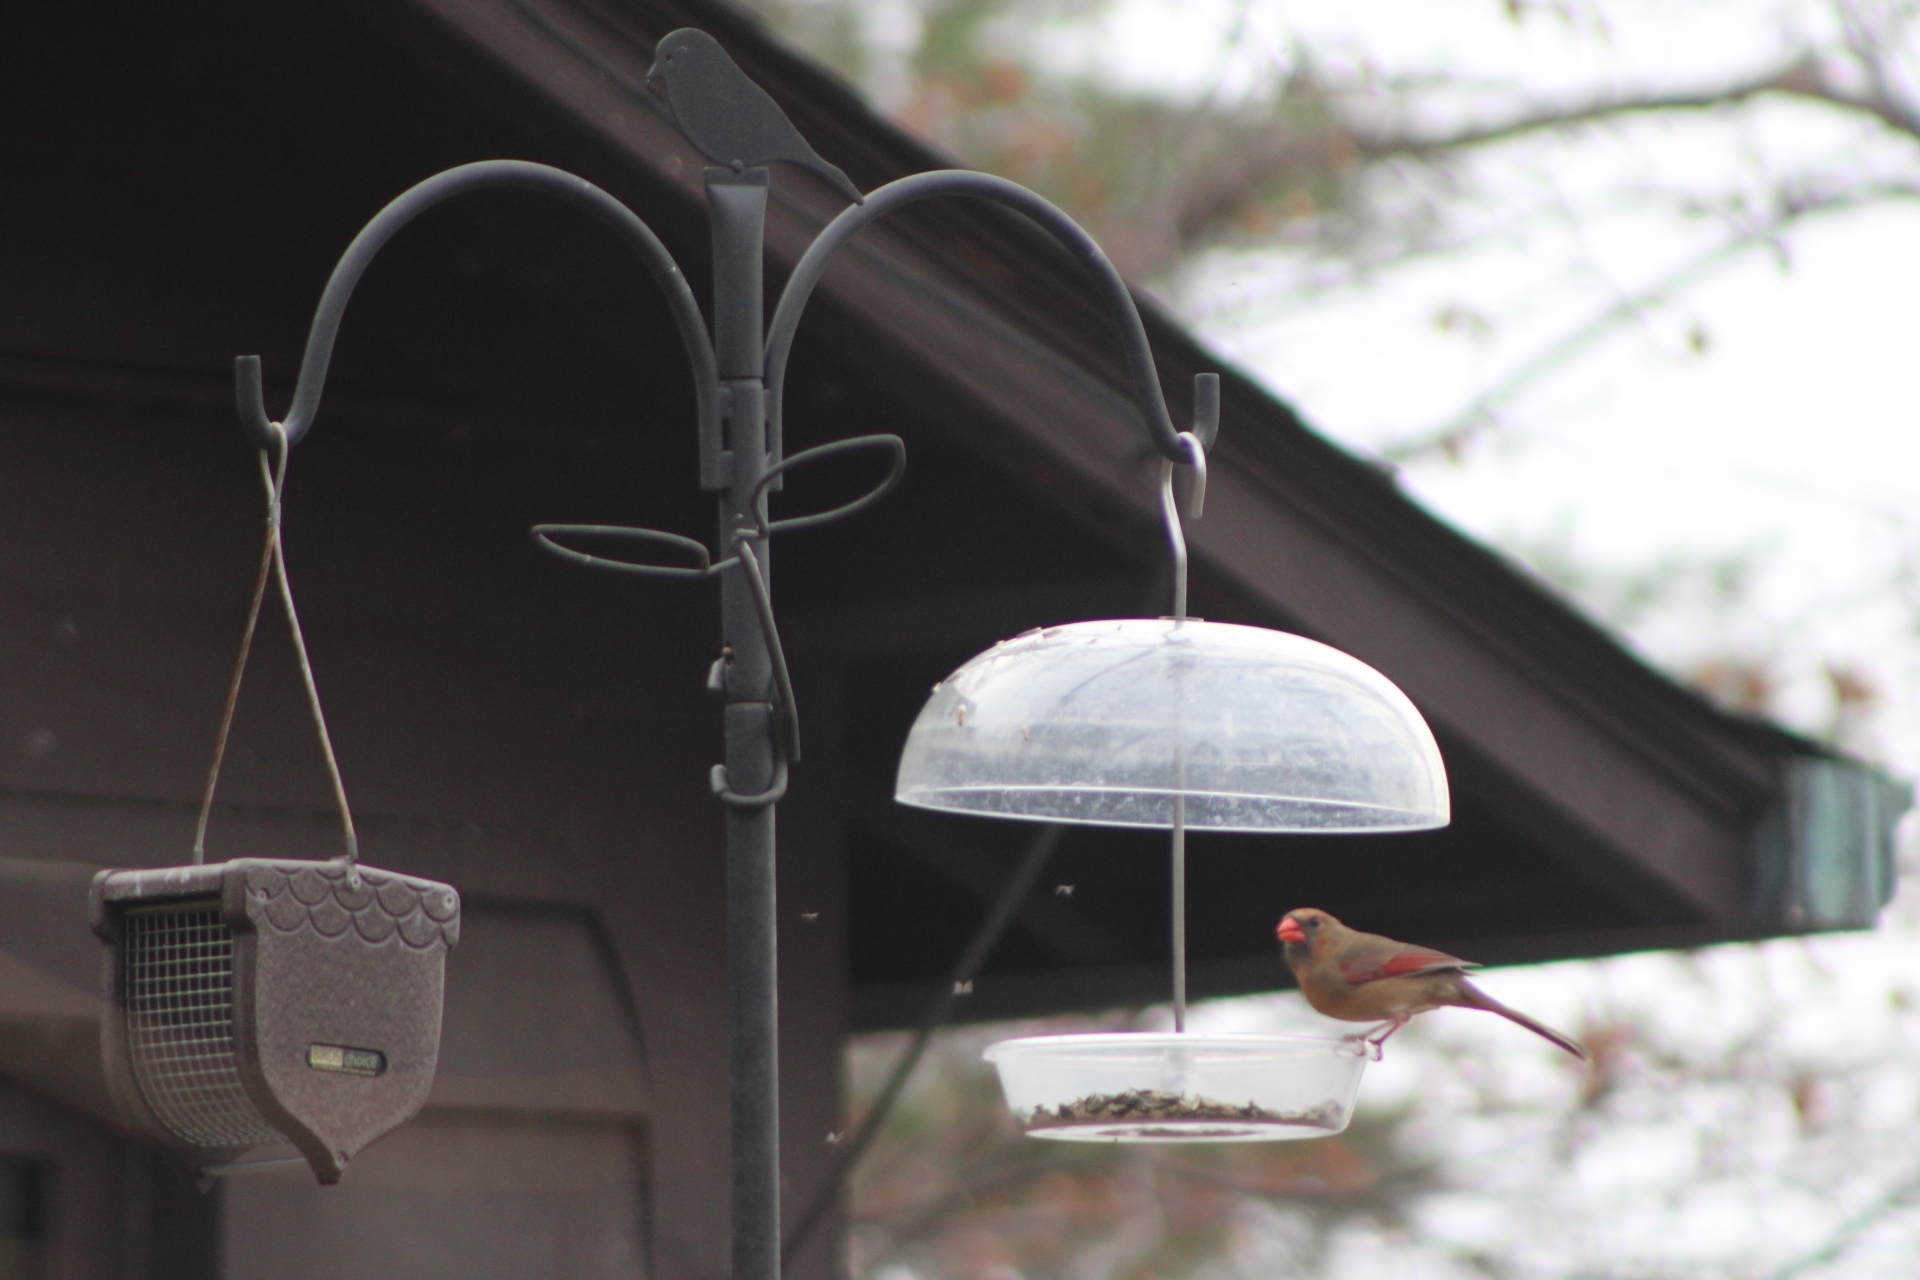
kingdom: Animalia
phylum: Chordata
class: Aves
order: Passeriformes
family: Cardinalidae
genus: Cardinalis
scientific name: Cardinalis cardinalis
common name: Northern cardinal
